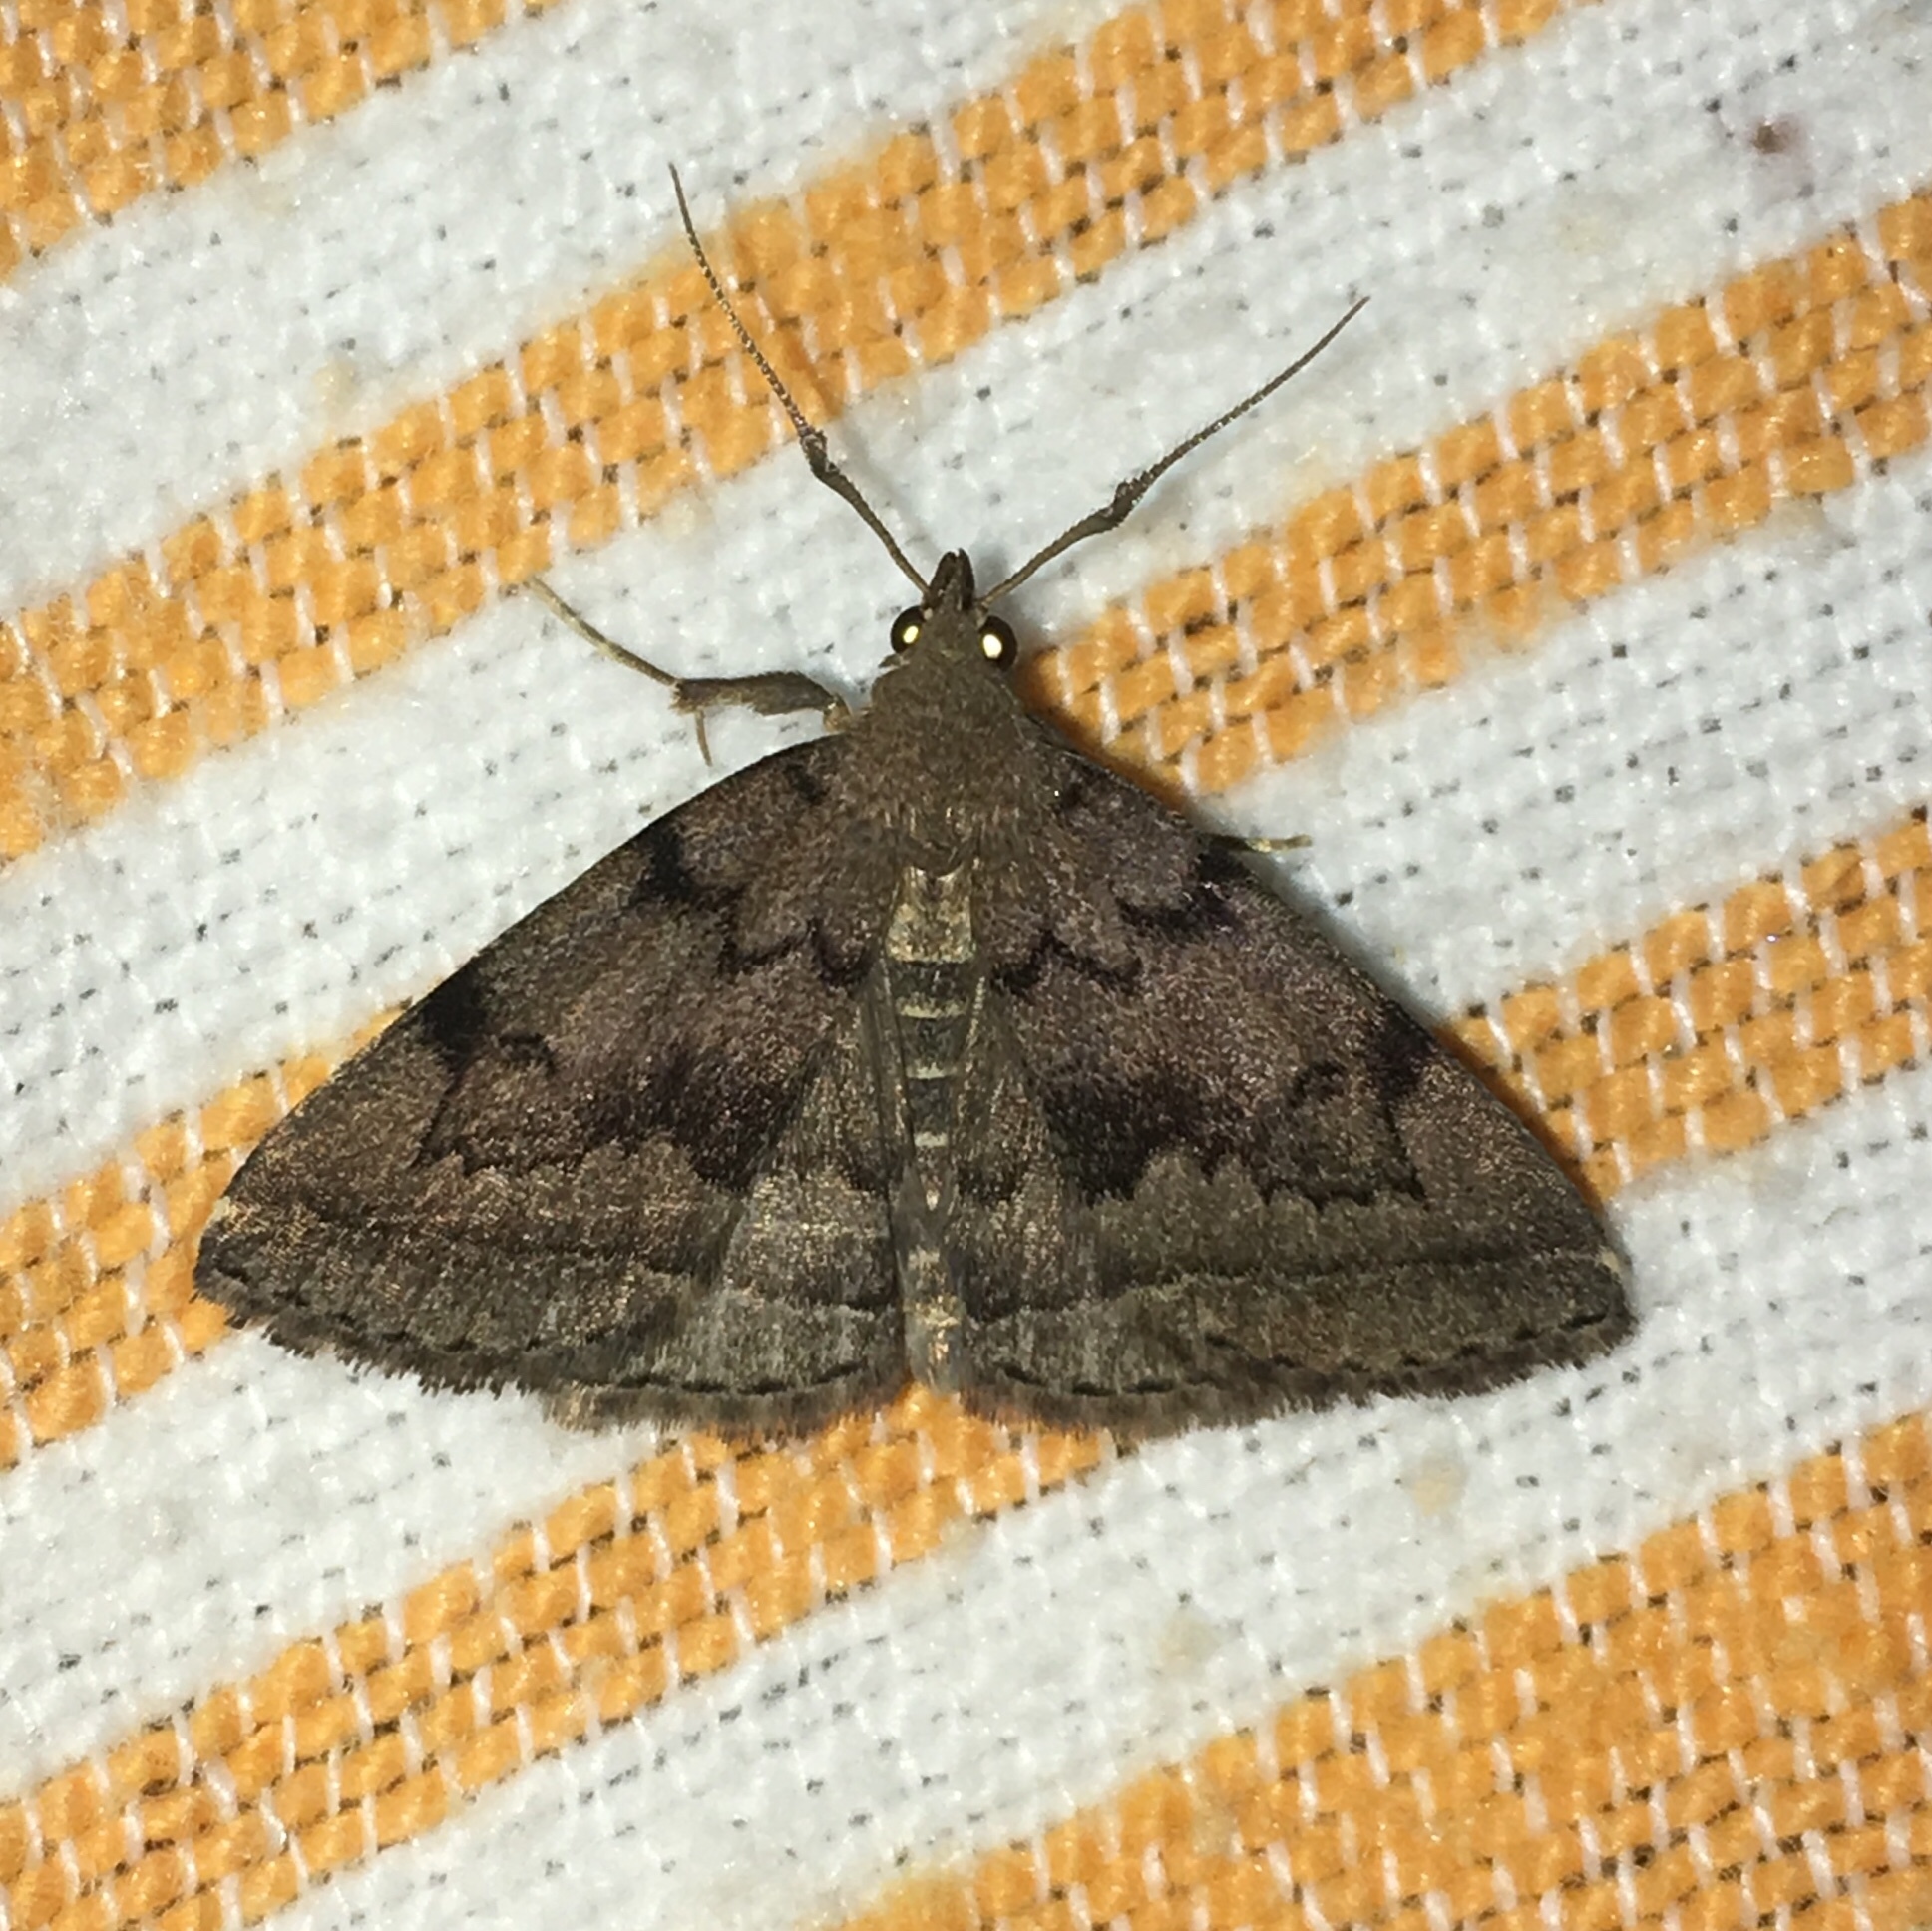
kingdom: Animalia
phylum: Arthropoda
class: Insecta
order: Lepidoptera
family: Erebidae
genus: Zanclognatha
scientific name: Zanclognatha dentata
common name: Toothed fan-foot
